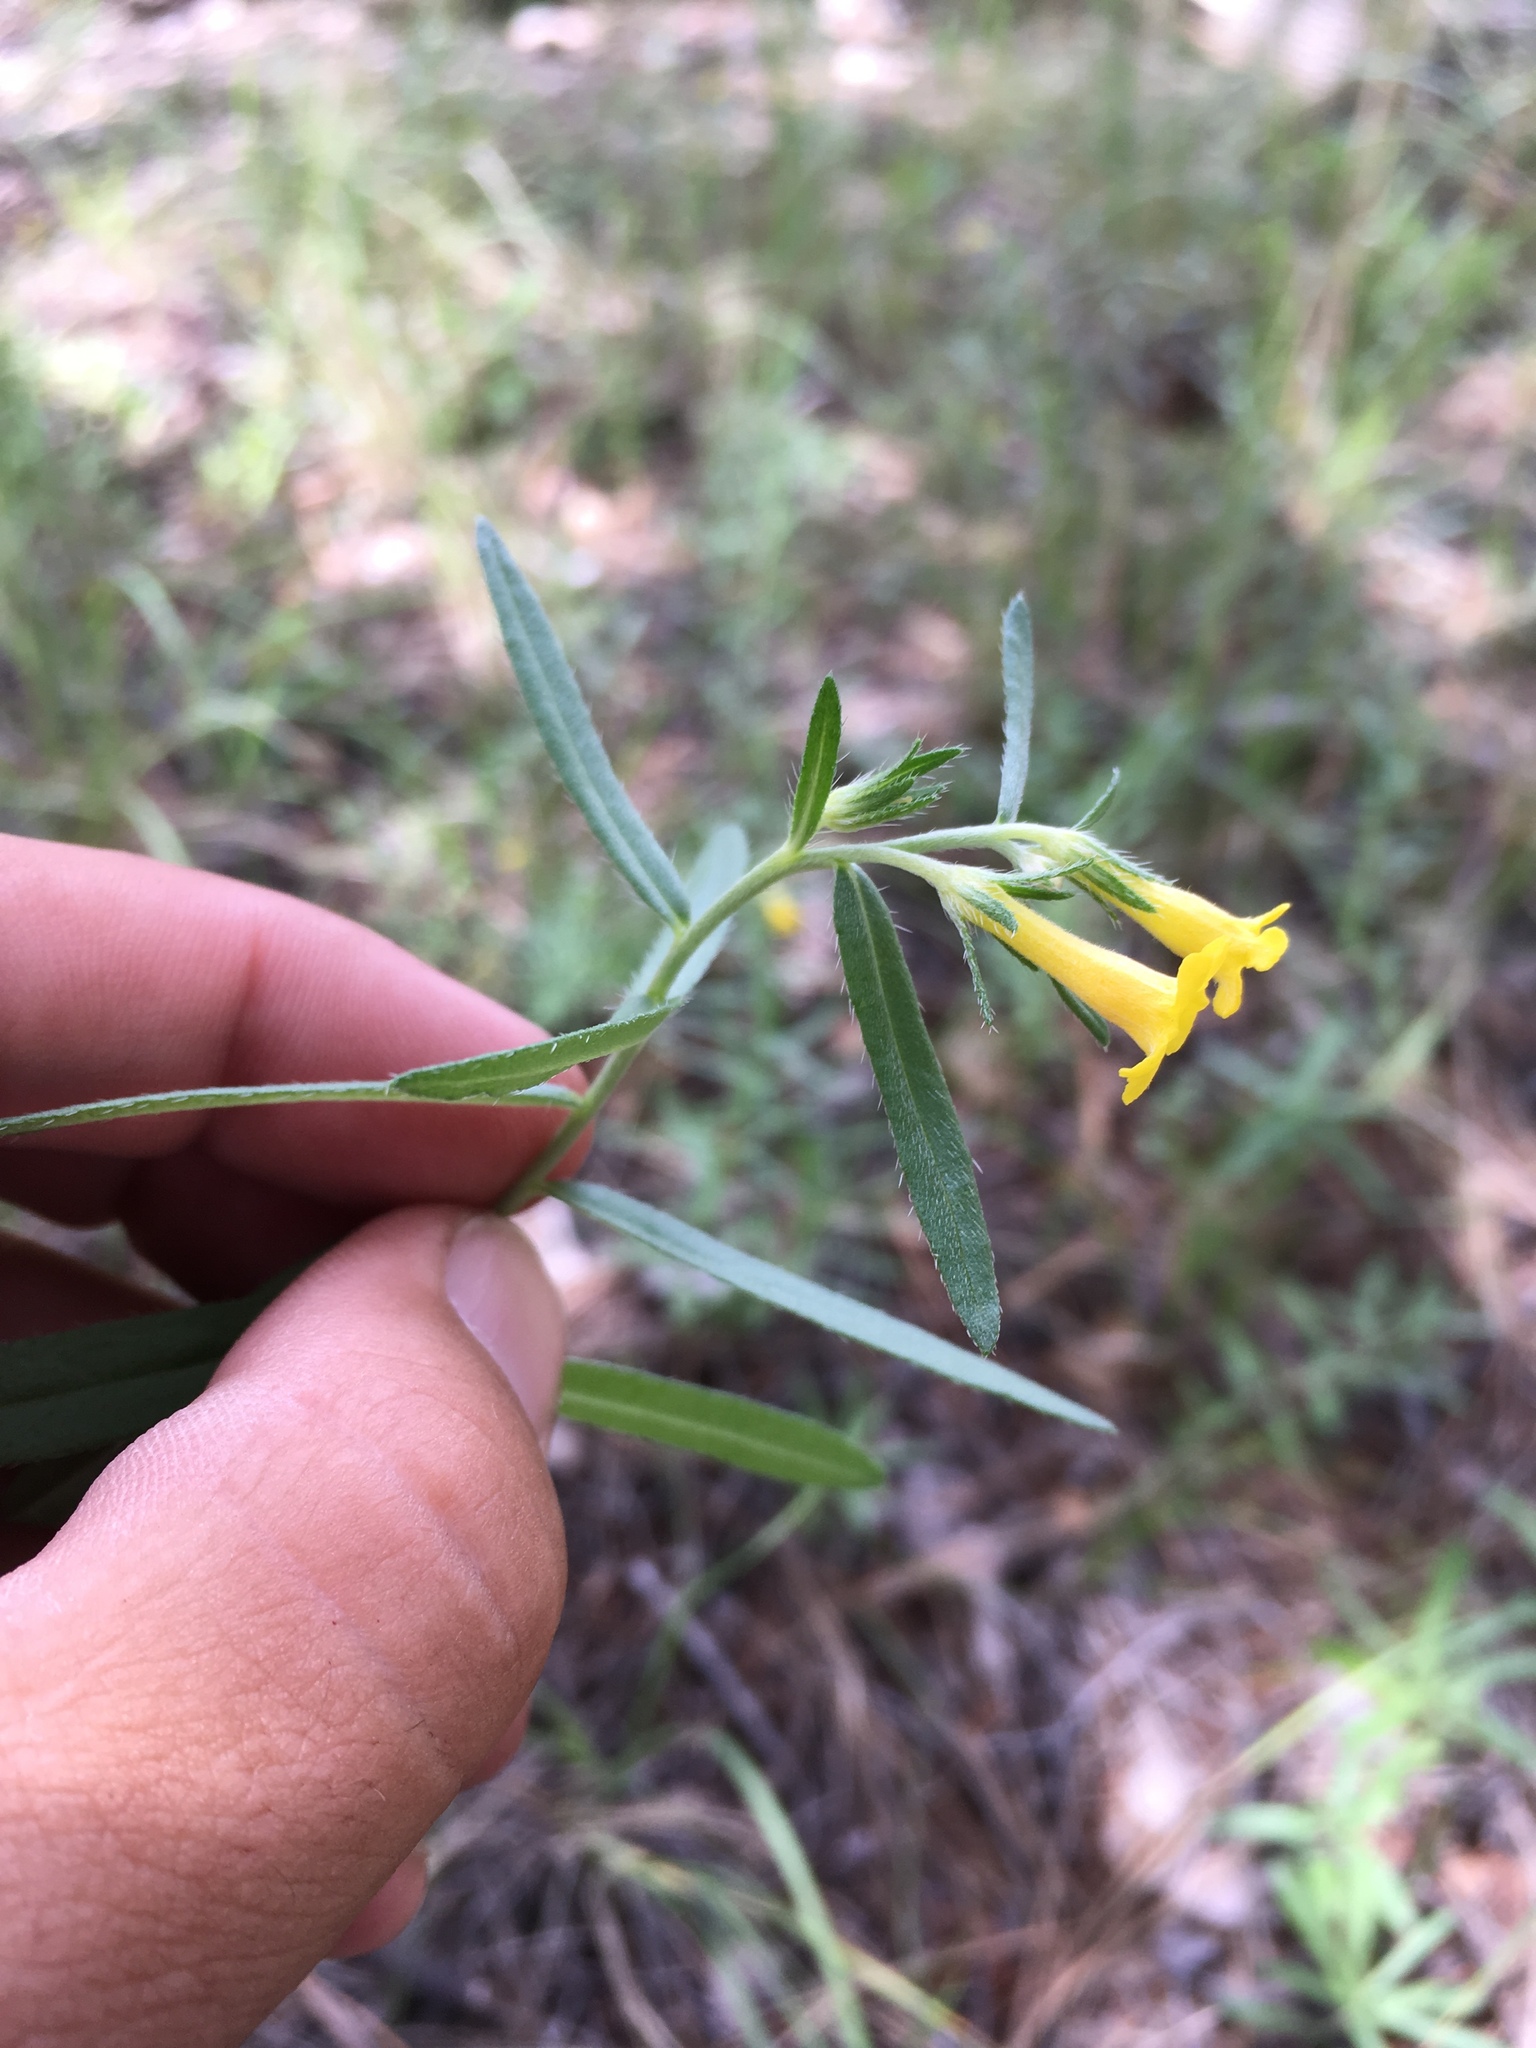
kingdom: Plantae
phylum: Tracheophyta
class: Magnoliopsida
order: Boraginales
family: Boraginaceae
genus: Lithospermum
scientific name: Lithospermum multiflorum
